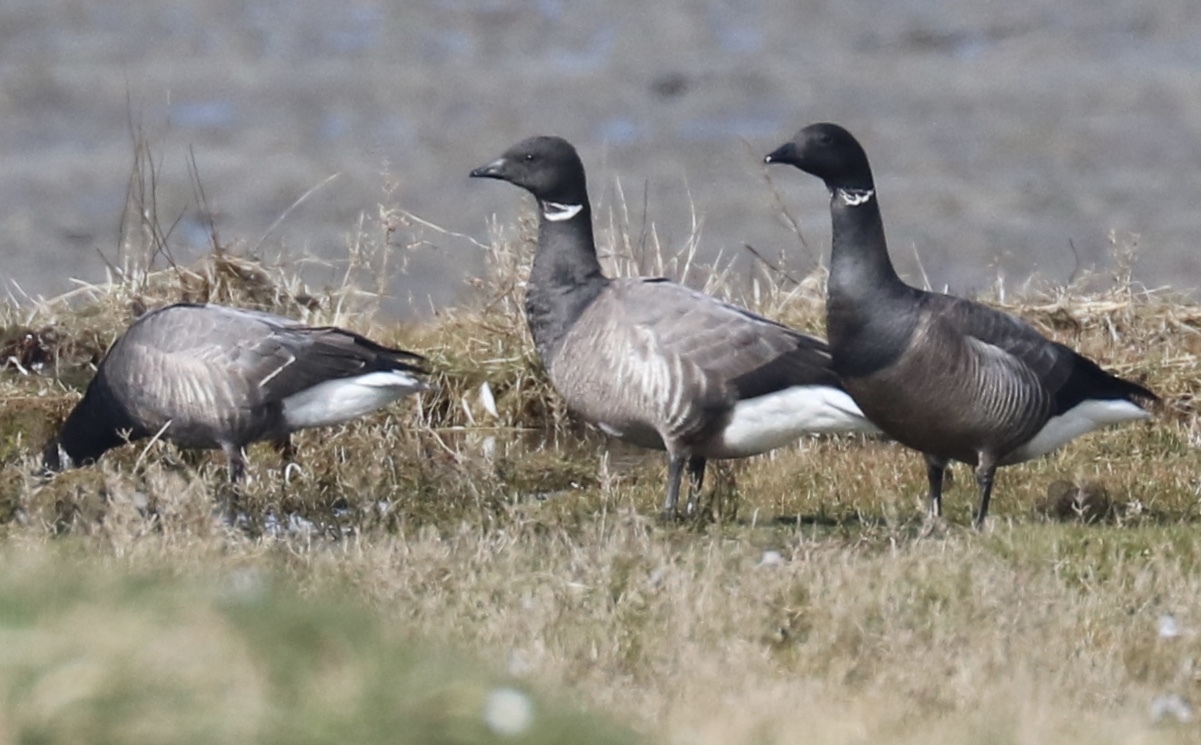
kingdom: Animalia
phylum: Chordata
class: Aves
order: Anseriformes
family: Anatidae
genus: Branta
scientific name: Branta bernicla
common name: Brant goose
